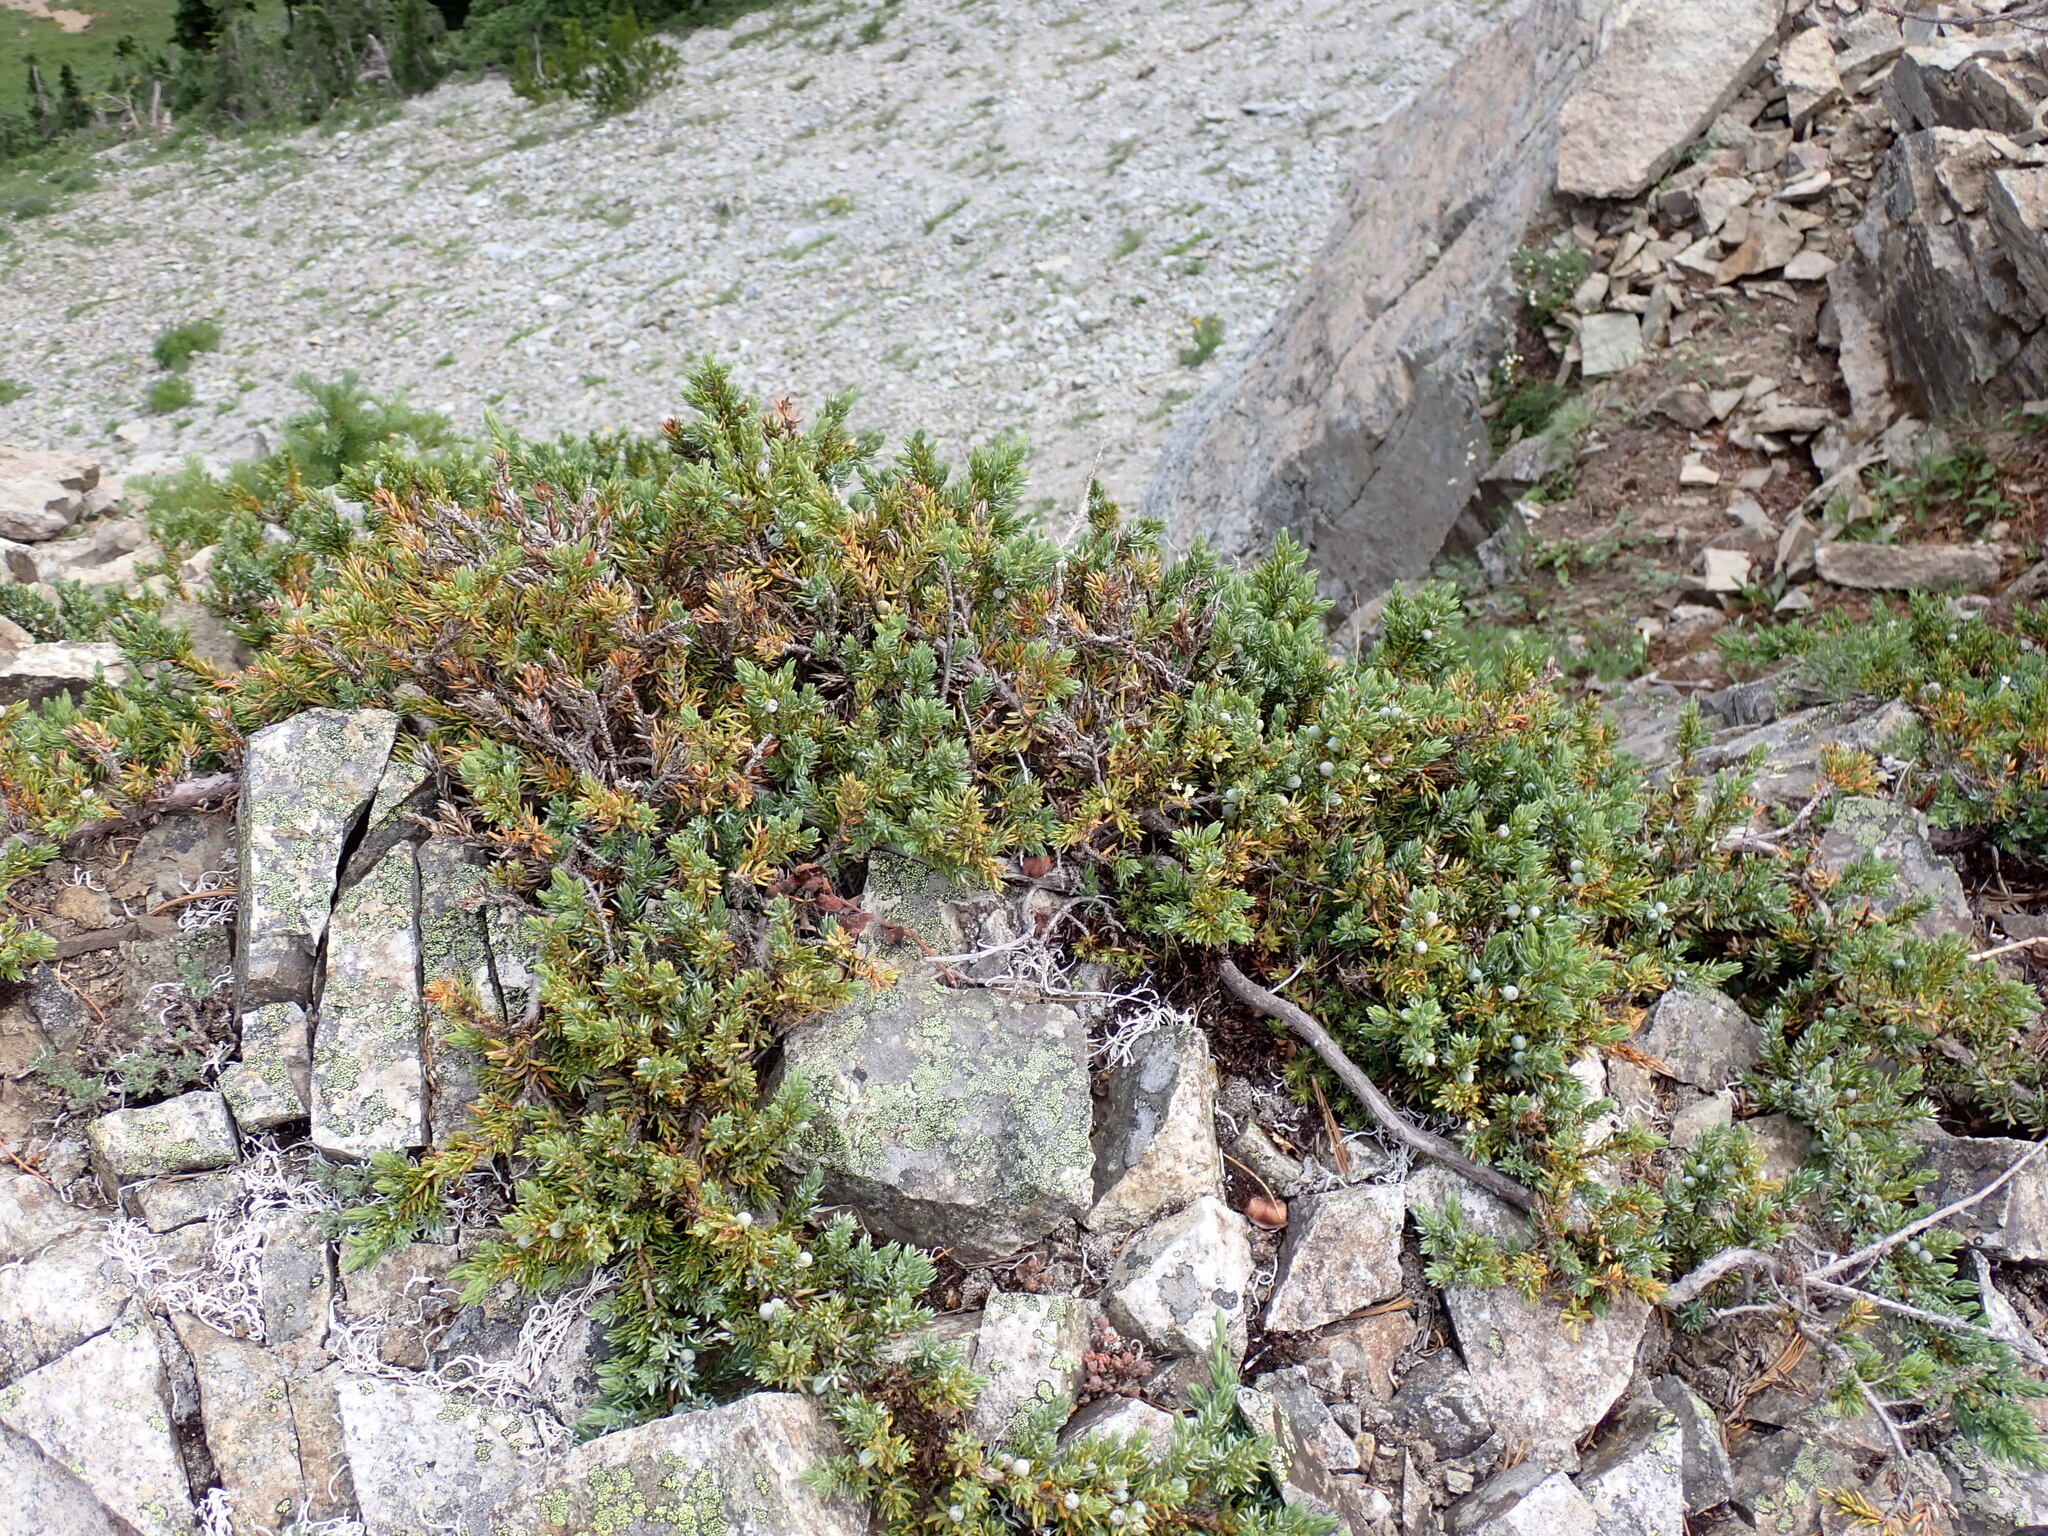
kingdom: Plantae
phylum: Tracheophyta
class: Pinopsida
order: Pinales
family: Cupressaceae
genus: Juniperus
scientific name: Juniperus communis
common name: Common juniper
